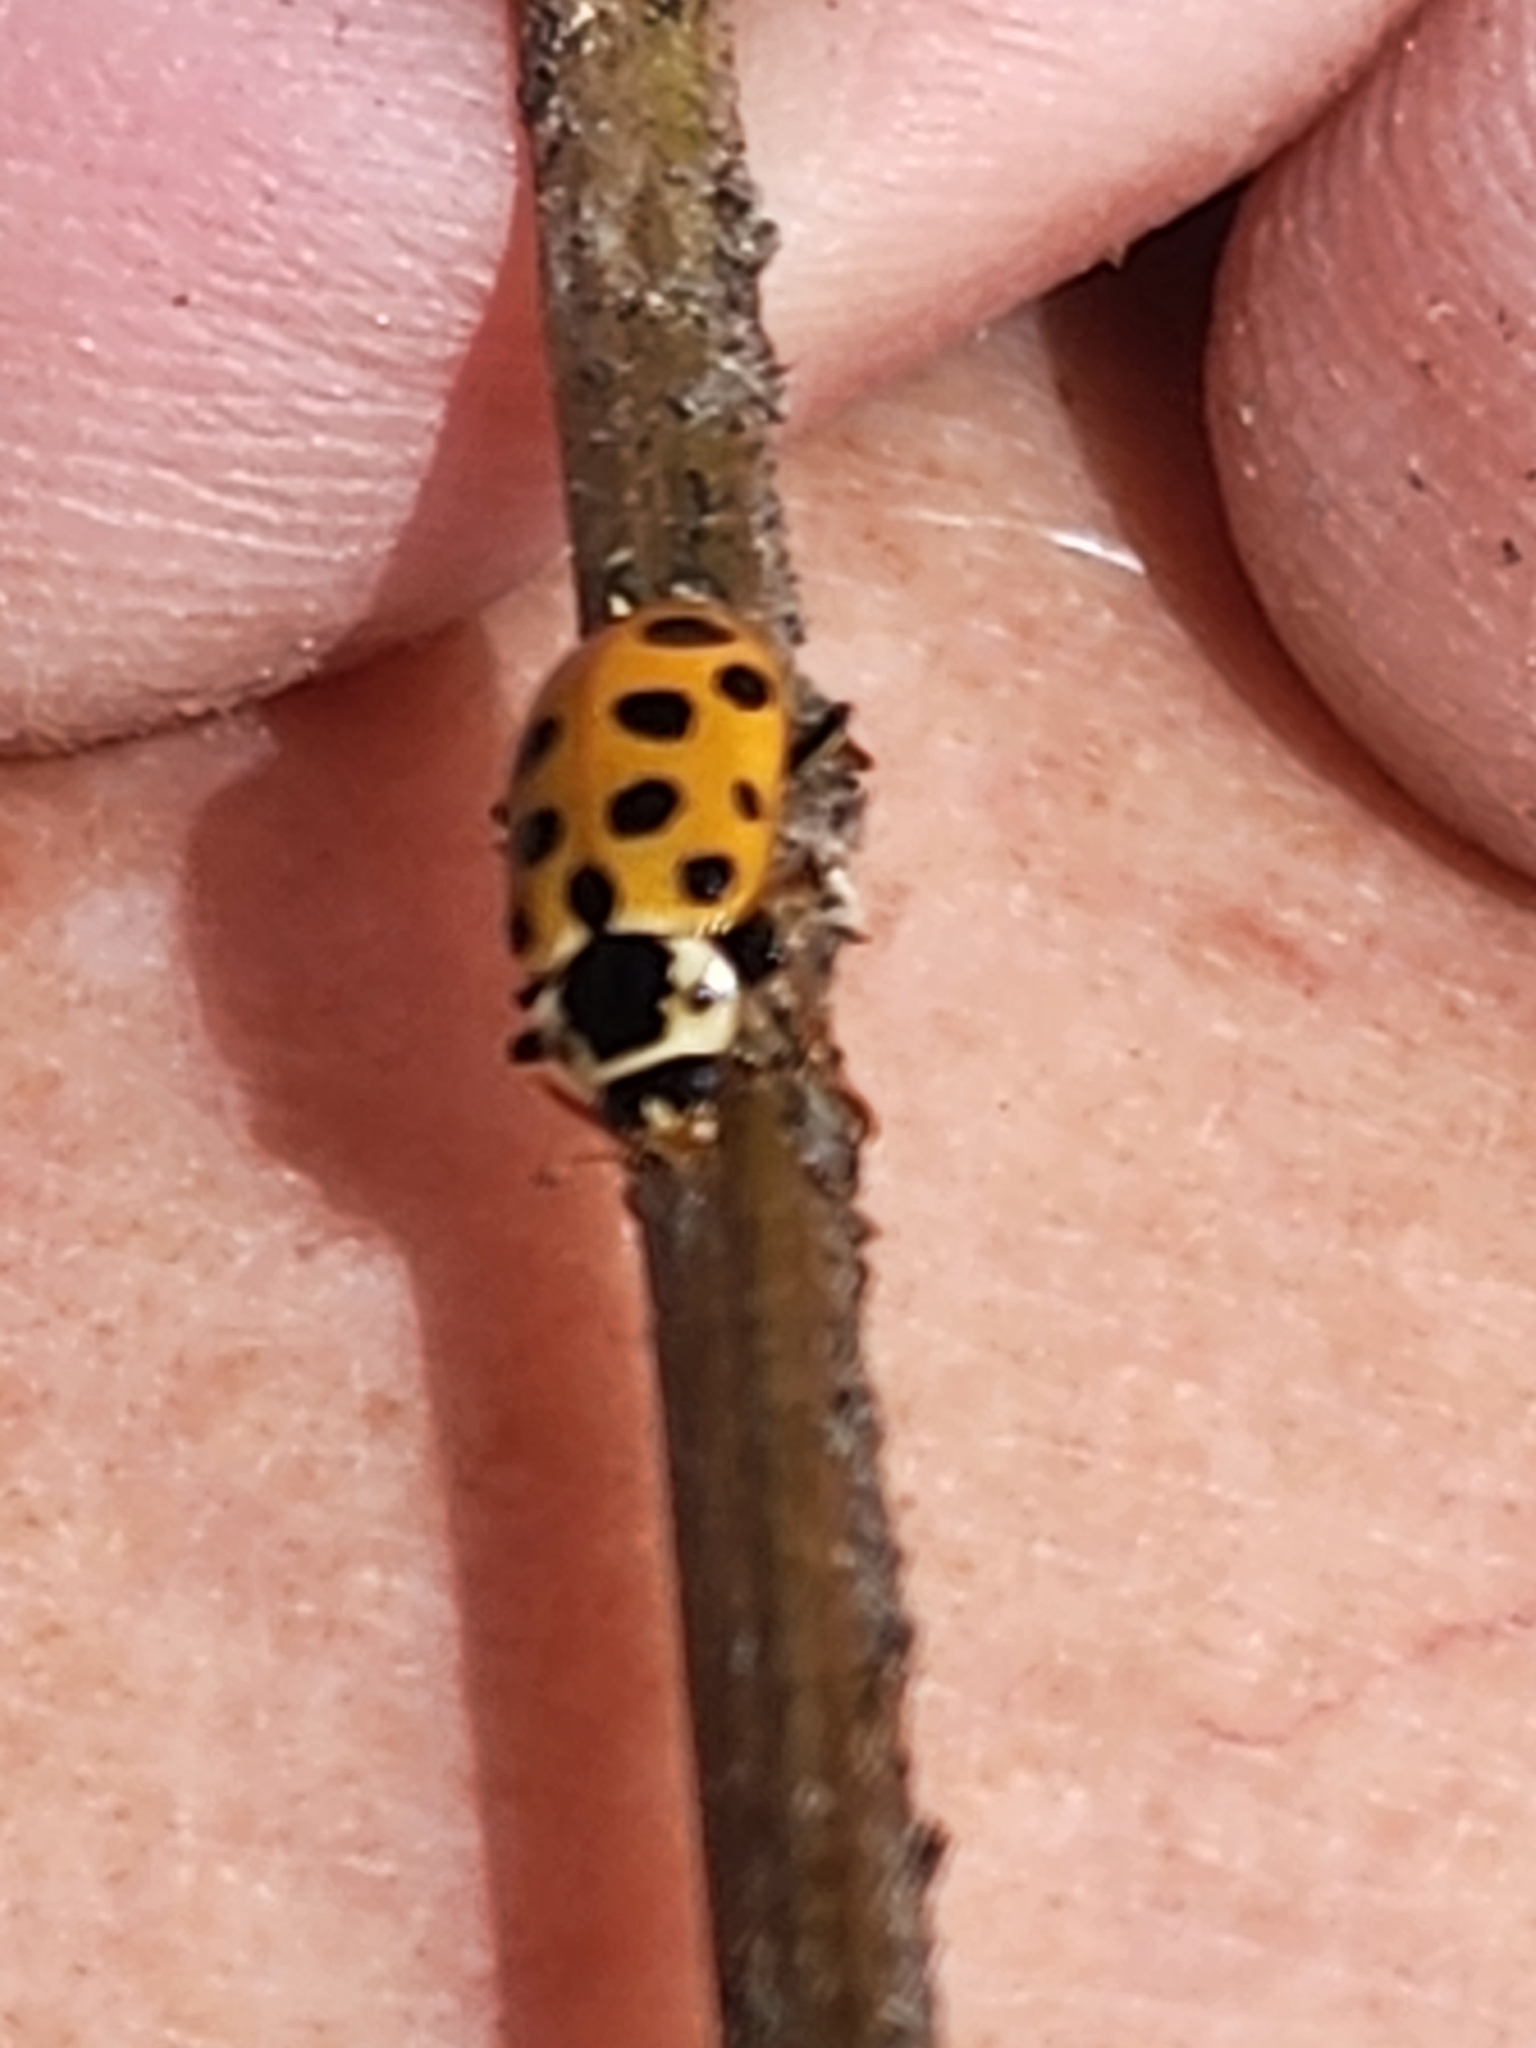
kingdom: Animalia
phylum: Arthropoda
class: Insecta
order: Coleoptera
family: Coccinellidae
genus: Hippodamia
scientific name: Hippodamia tredecimpunctata
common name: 13-spot ladybird
